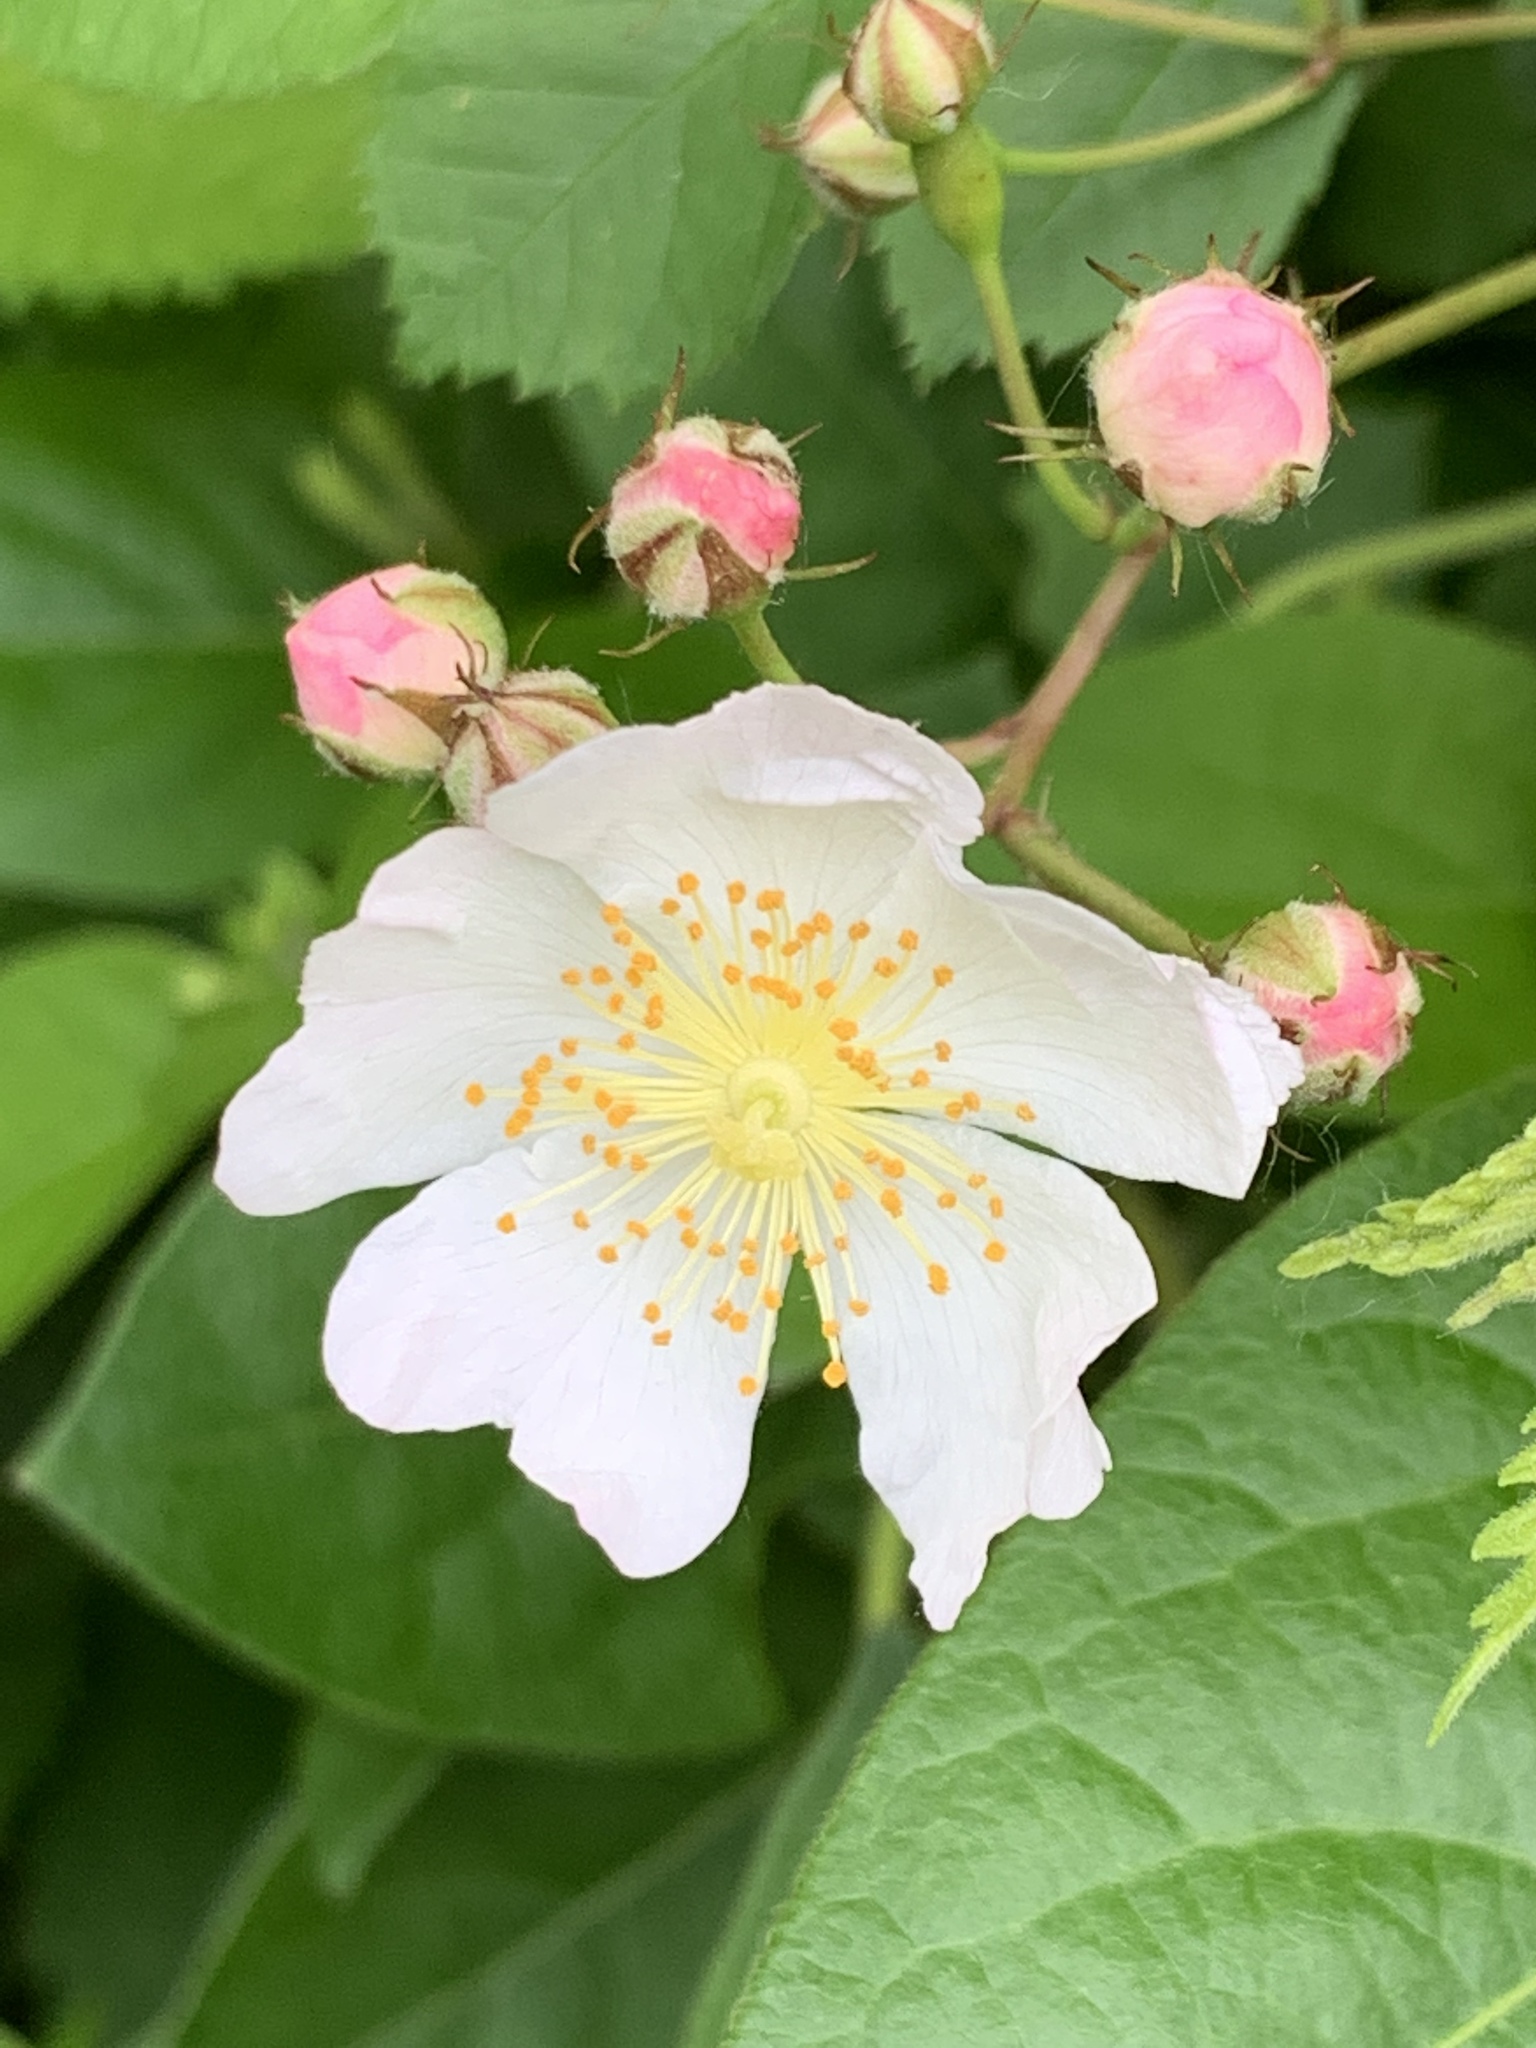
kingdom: Plantae
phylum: Tracheophyta
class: Magnoliopsida
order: Rosales
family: Rosaceae
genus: Rosa
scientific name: Rosa multiflora
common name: Multiflora rose
